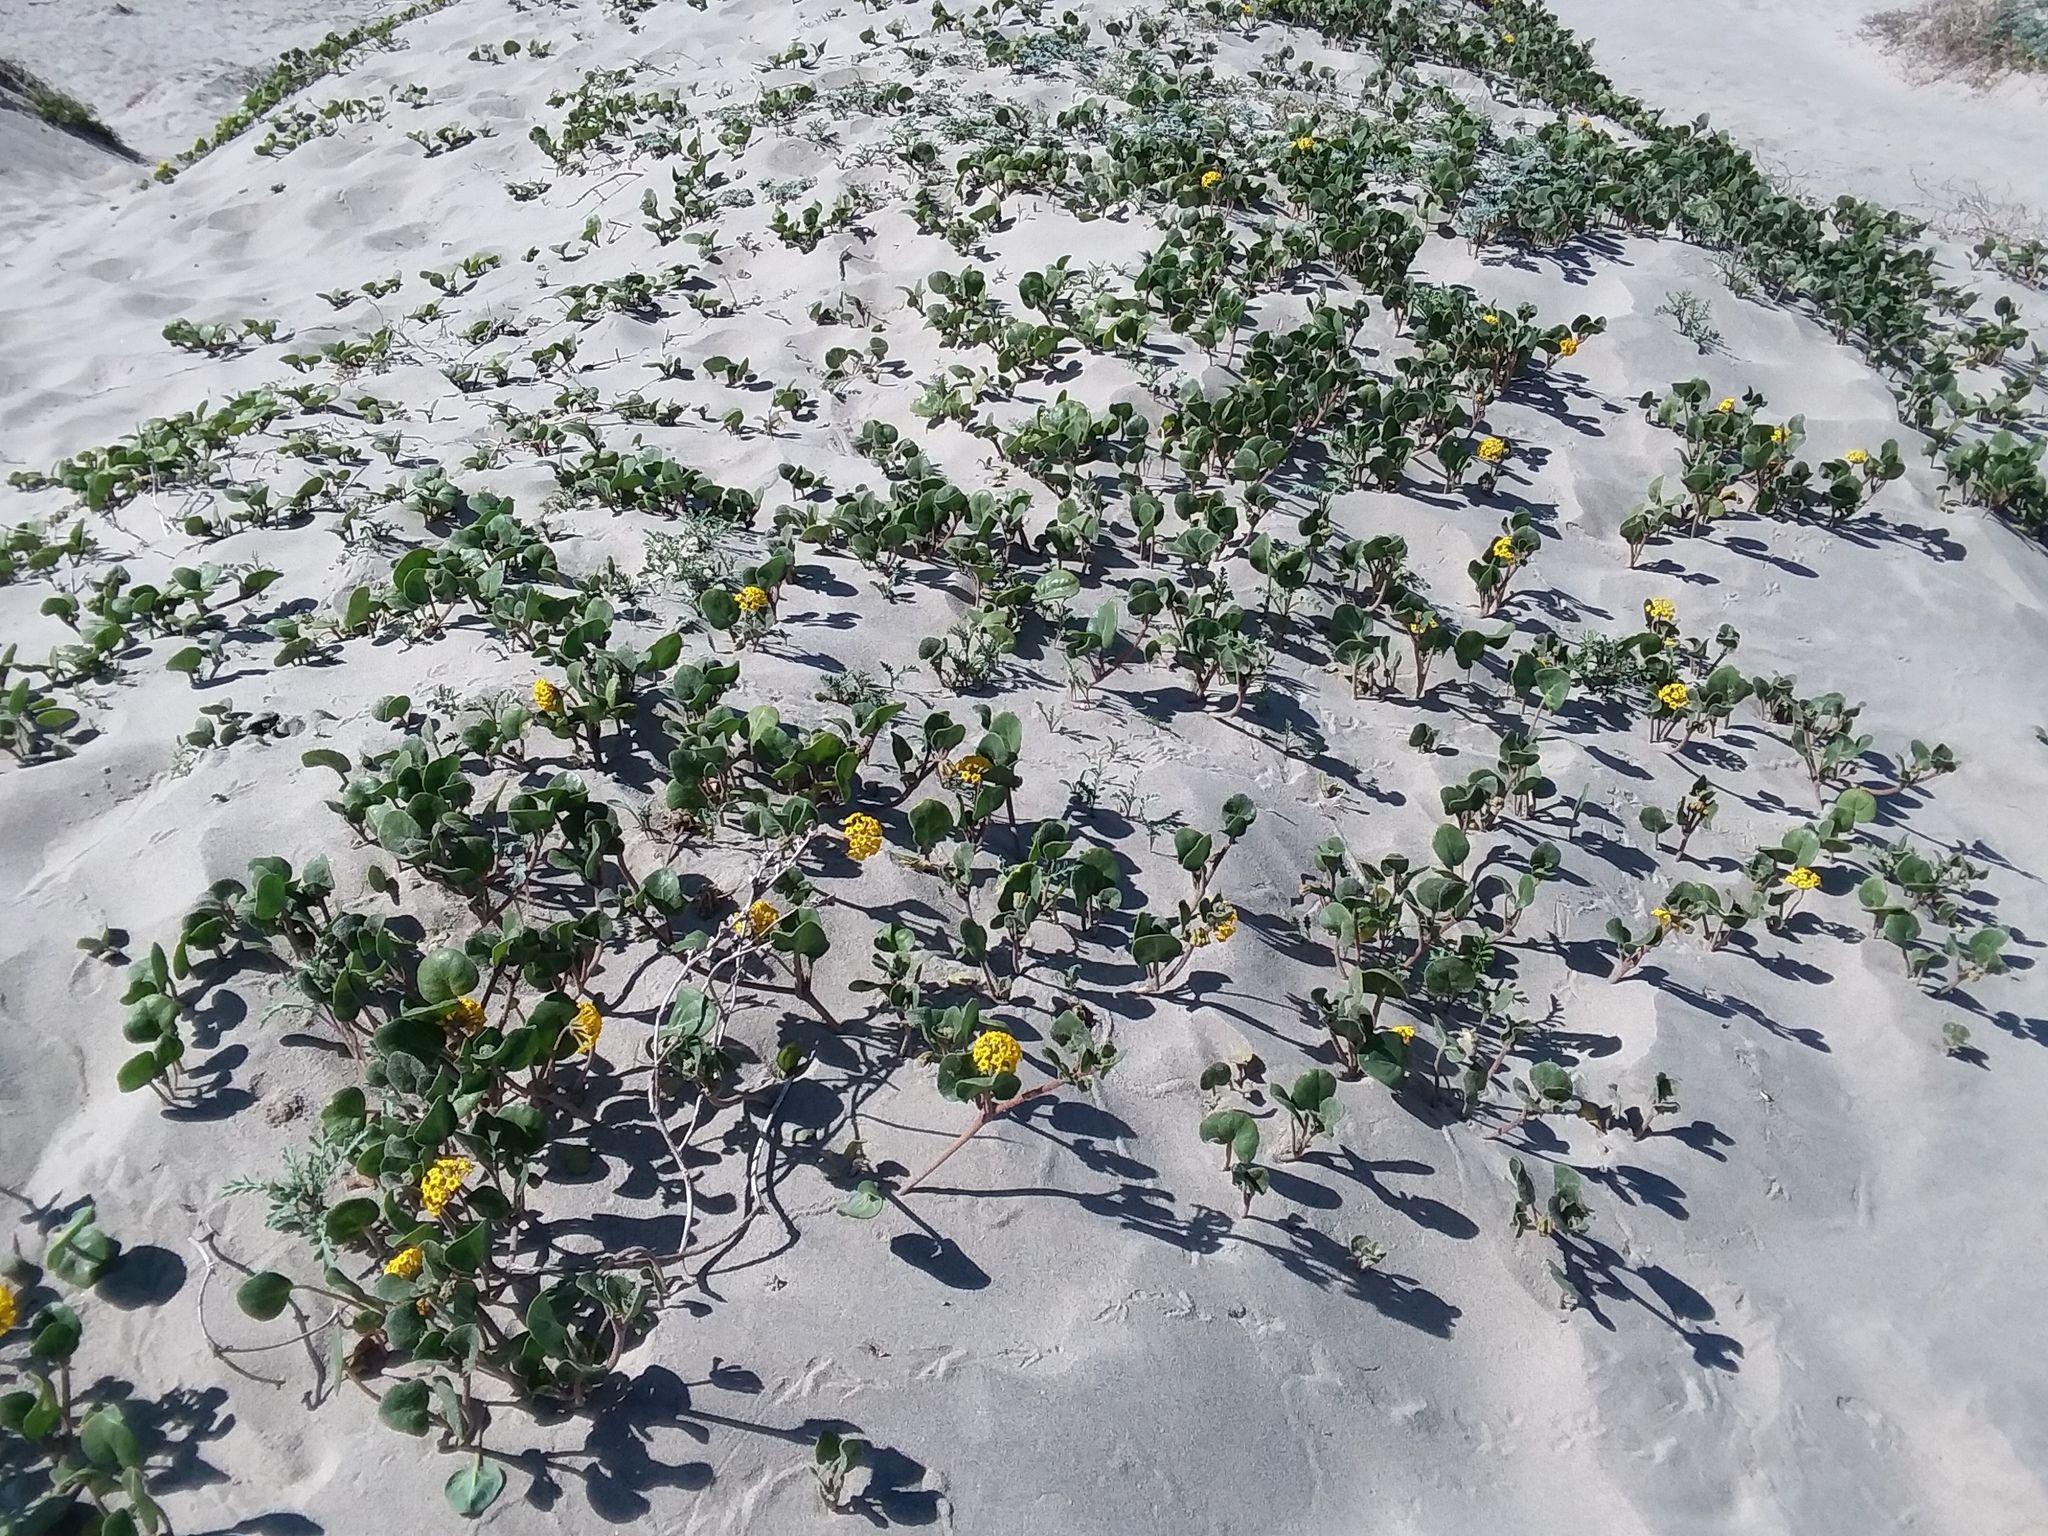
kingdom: Plantae
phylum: Tracheophyta
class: Magnoliopsida
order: Caryophyllales
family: Nyctaginaceae
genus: Abronia
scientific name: Abronia latifolia
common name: Yellow sand-verbena
